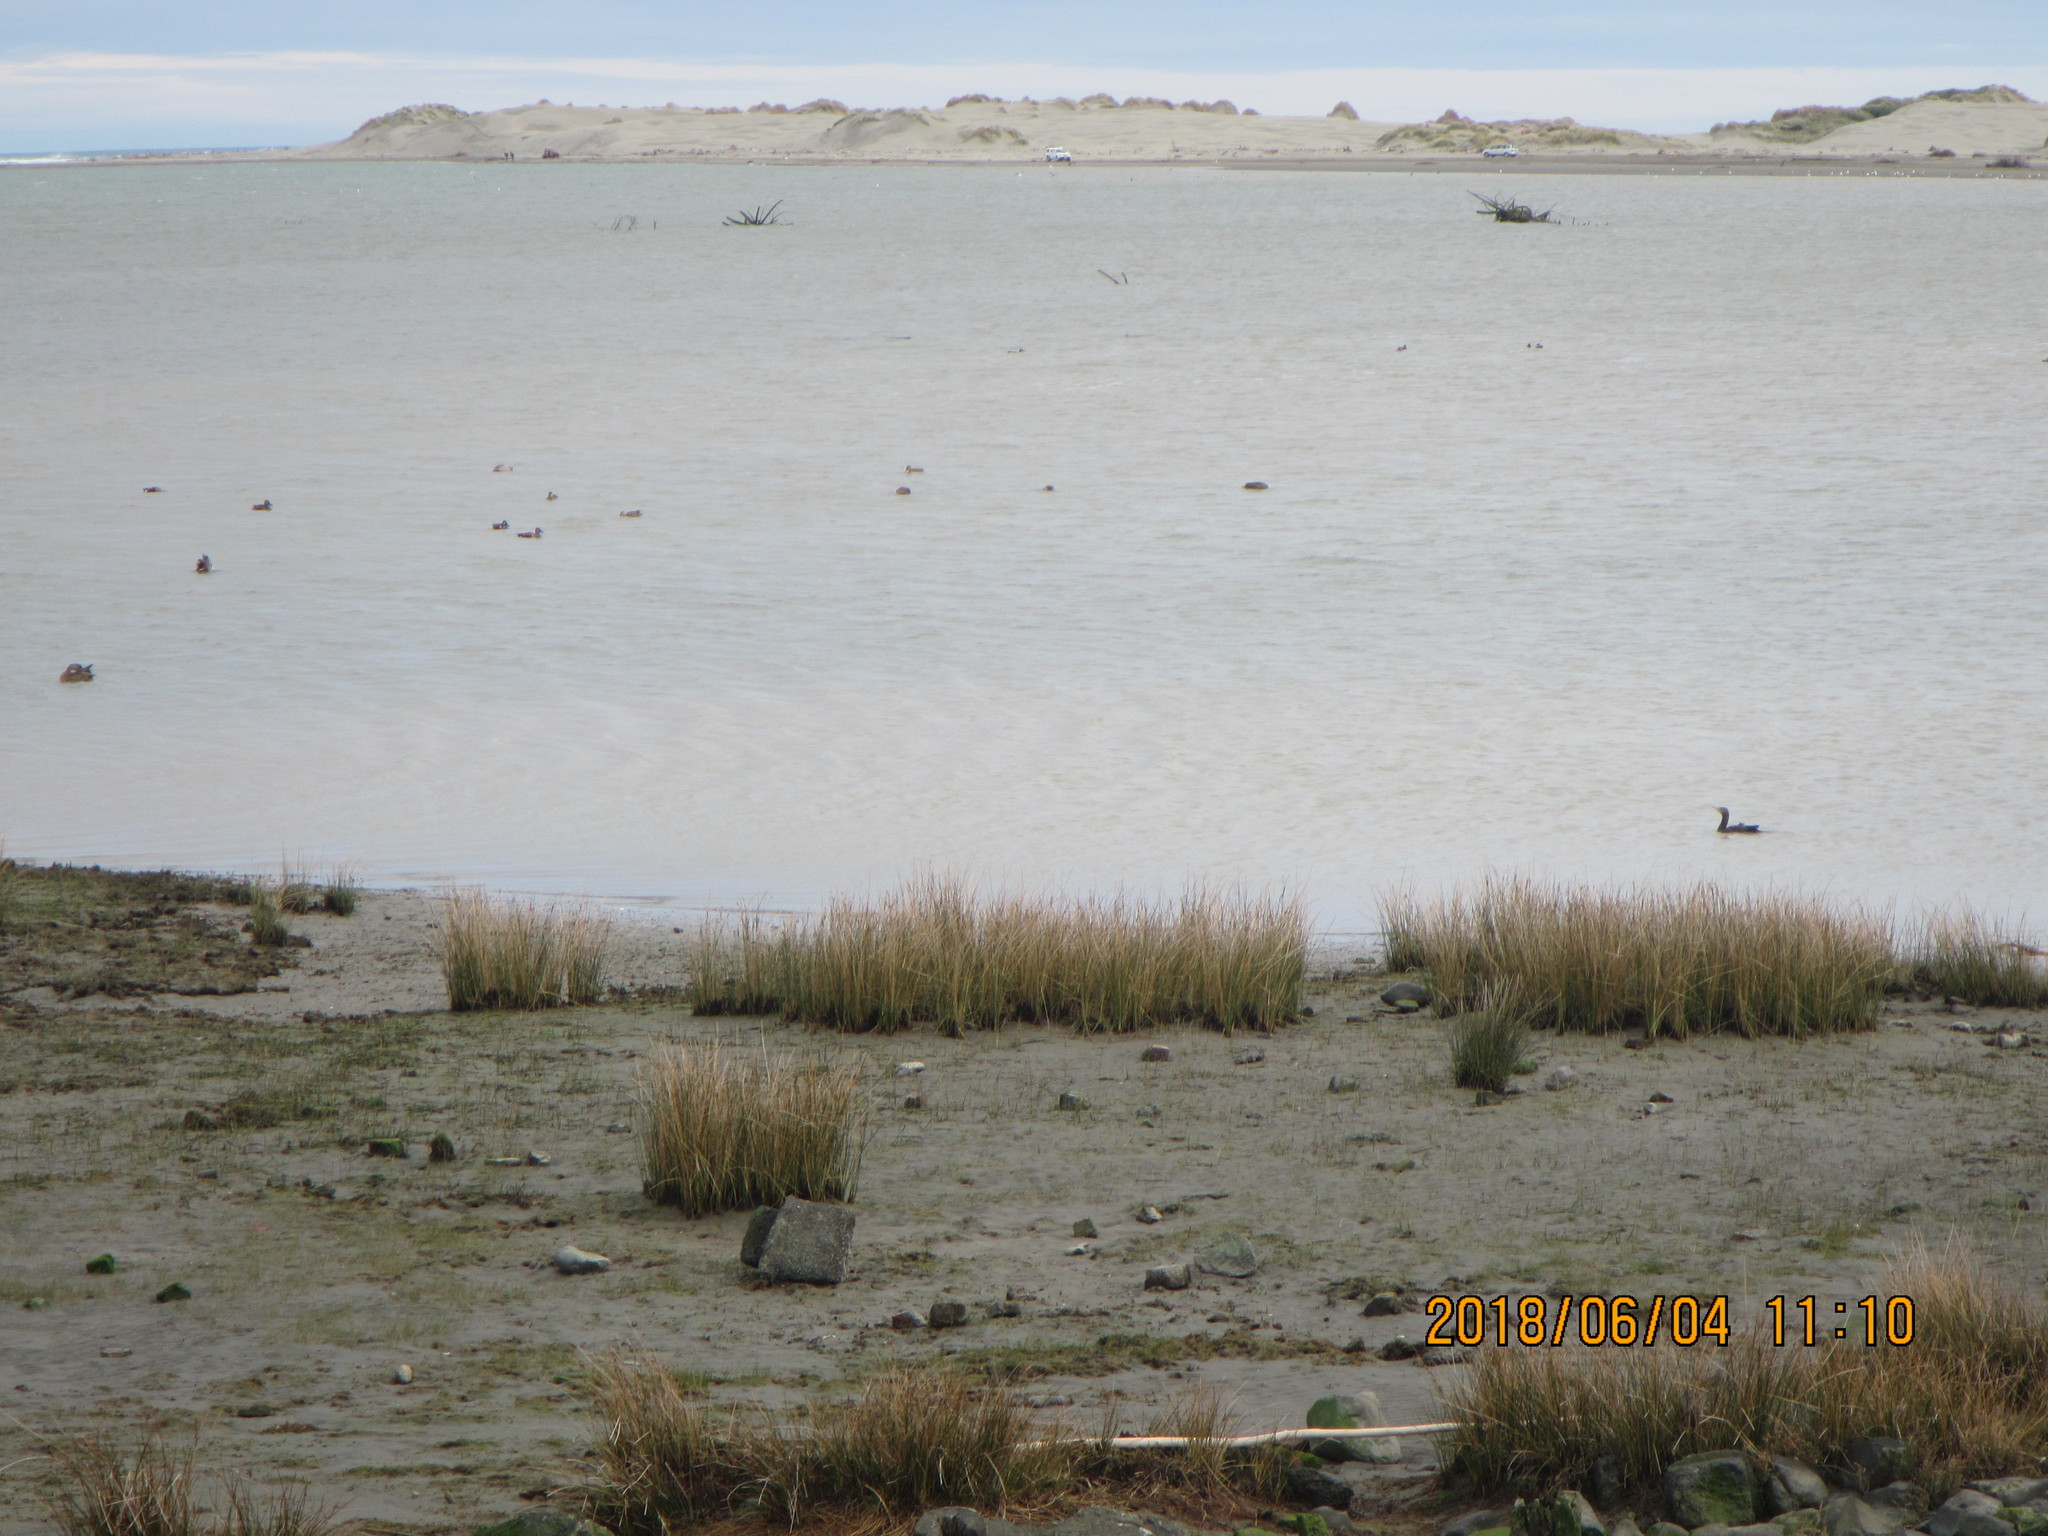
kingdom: Animalia
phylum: Chordata
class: Aves
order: Suliformes
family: Phalacrocoracidae
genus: Phalacrocorax
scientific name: Phalacrocorax carbo
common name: Great cormorant
